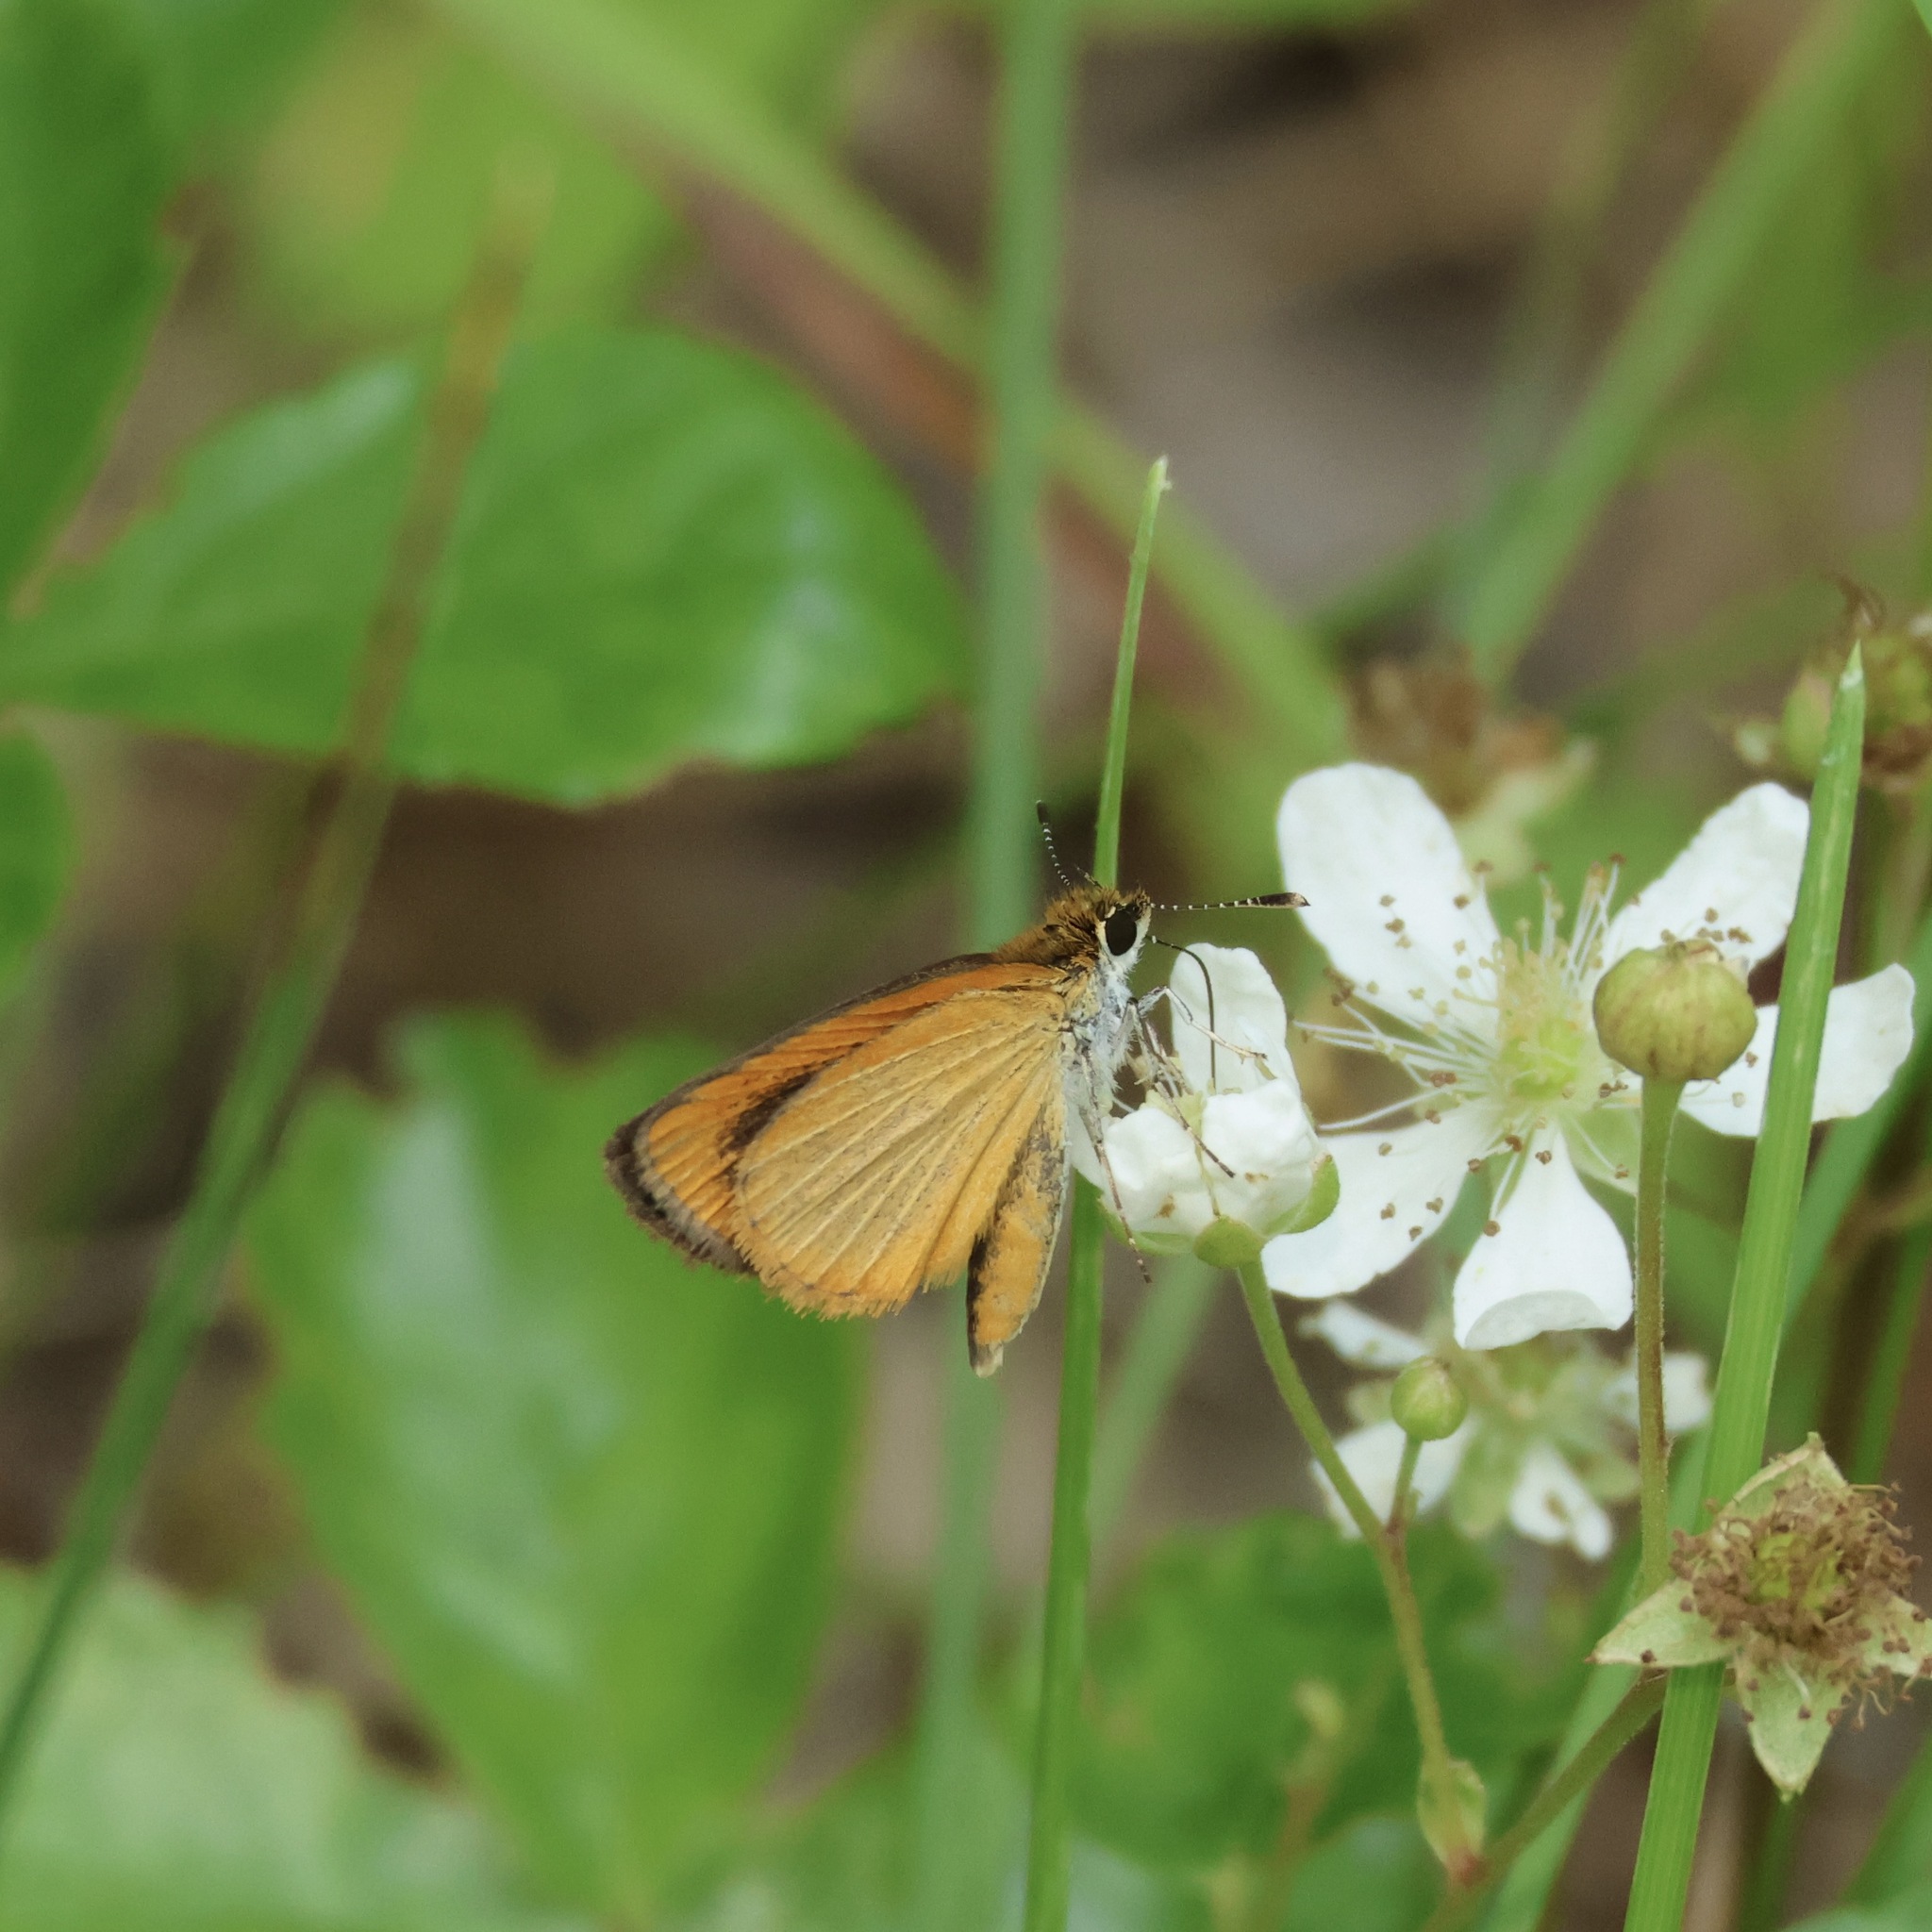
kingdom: Animalia
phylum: Arthropoda
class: Insecta
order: Lepidoptera
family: Hesperiidae
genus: Ancyloxypha
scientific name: Ancyloxypha numitor
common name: Least skipper
